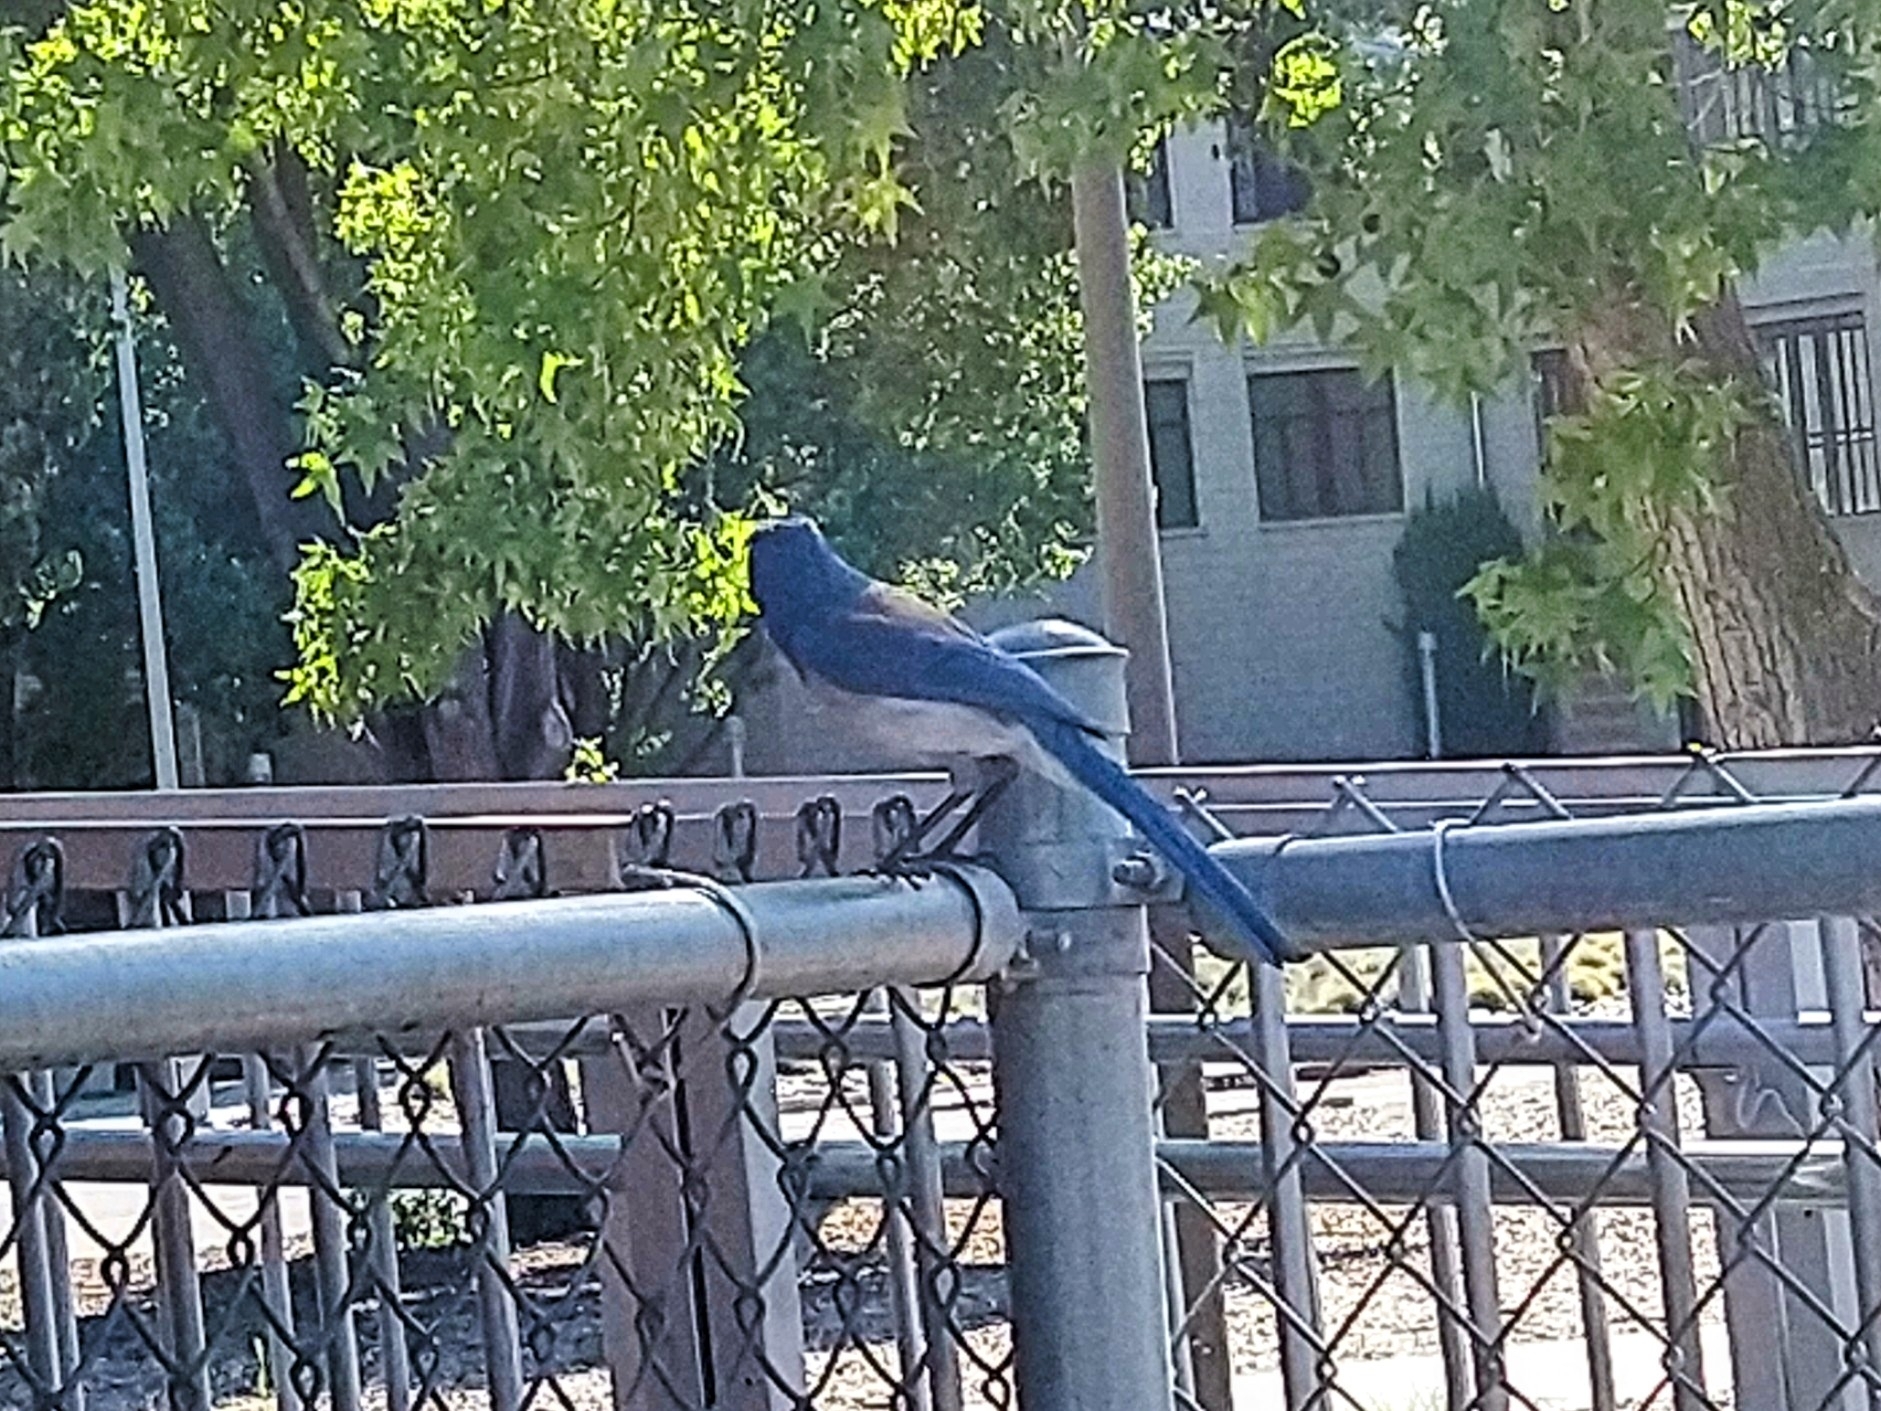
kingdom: Animalia
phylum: Chordata
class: Aves
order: Passeriformes
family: Corvidae
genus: Aphelocoma
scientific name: Aphelocoma californica
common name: California scrub-jay
